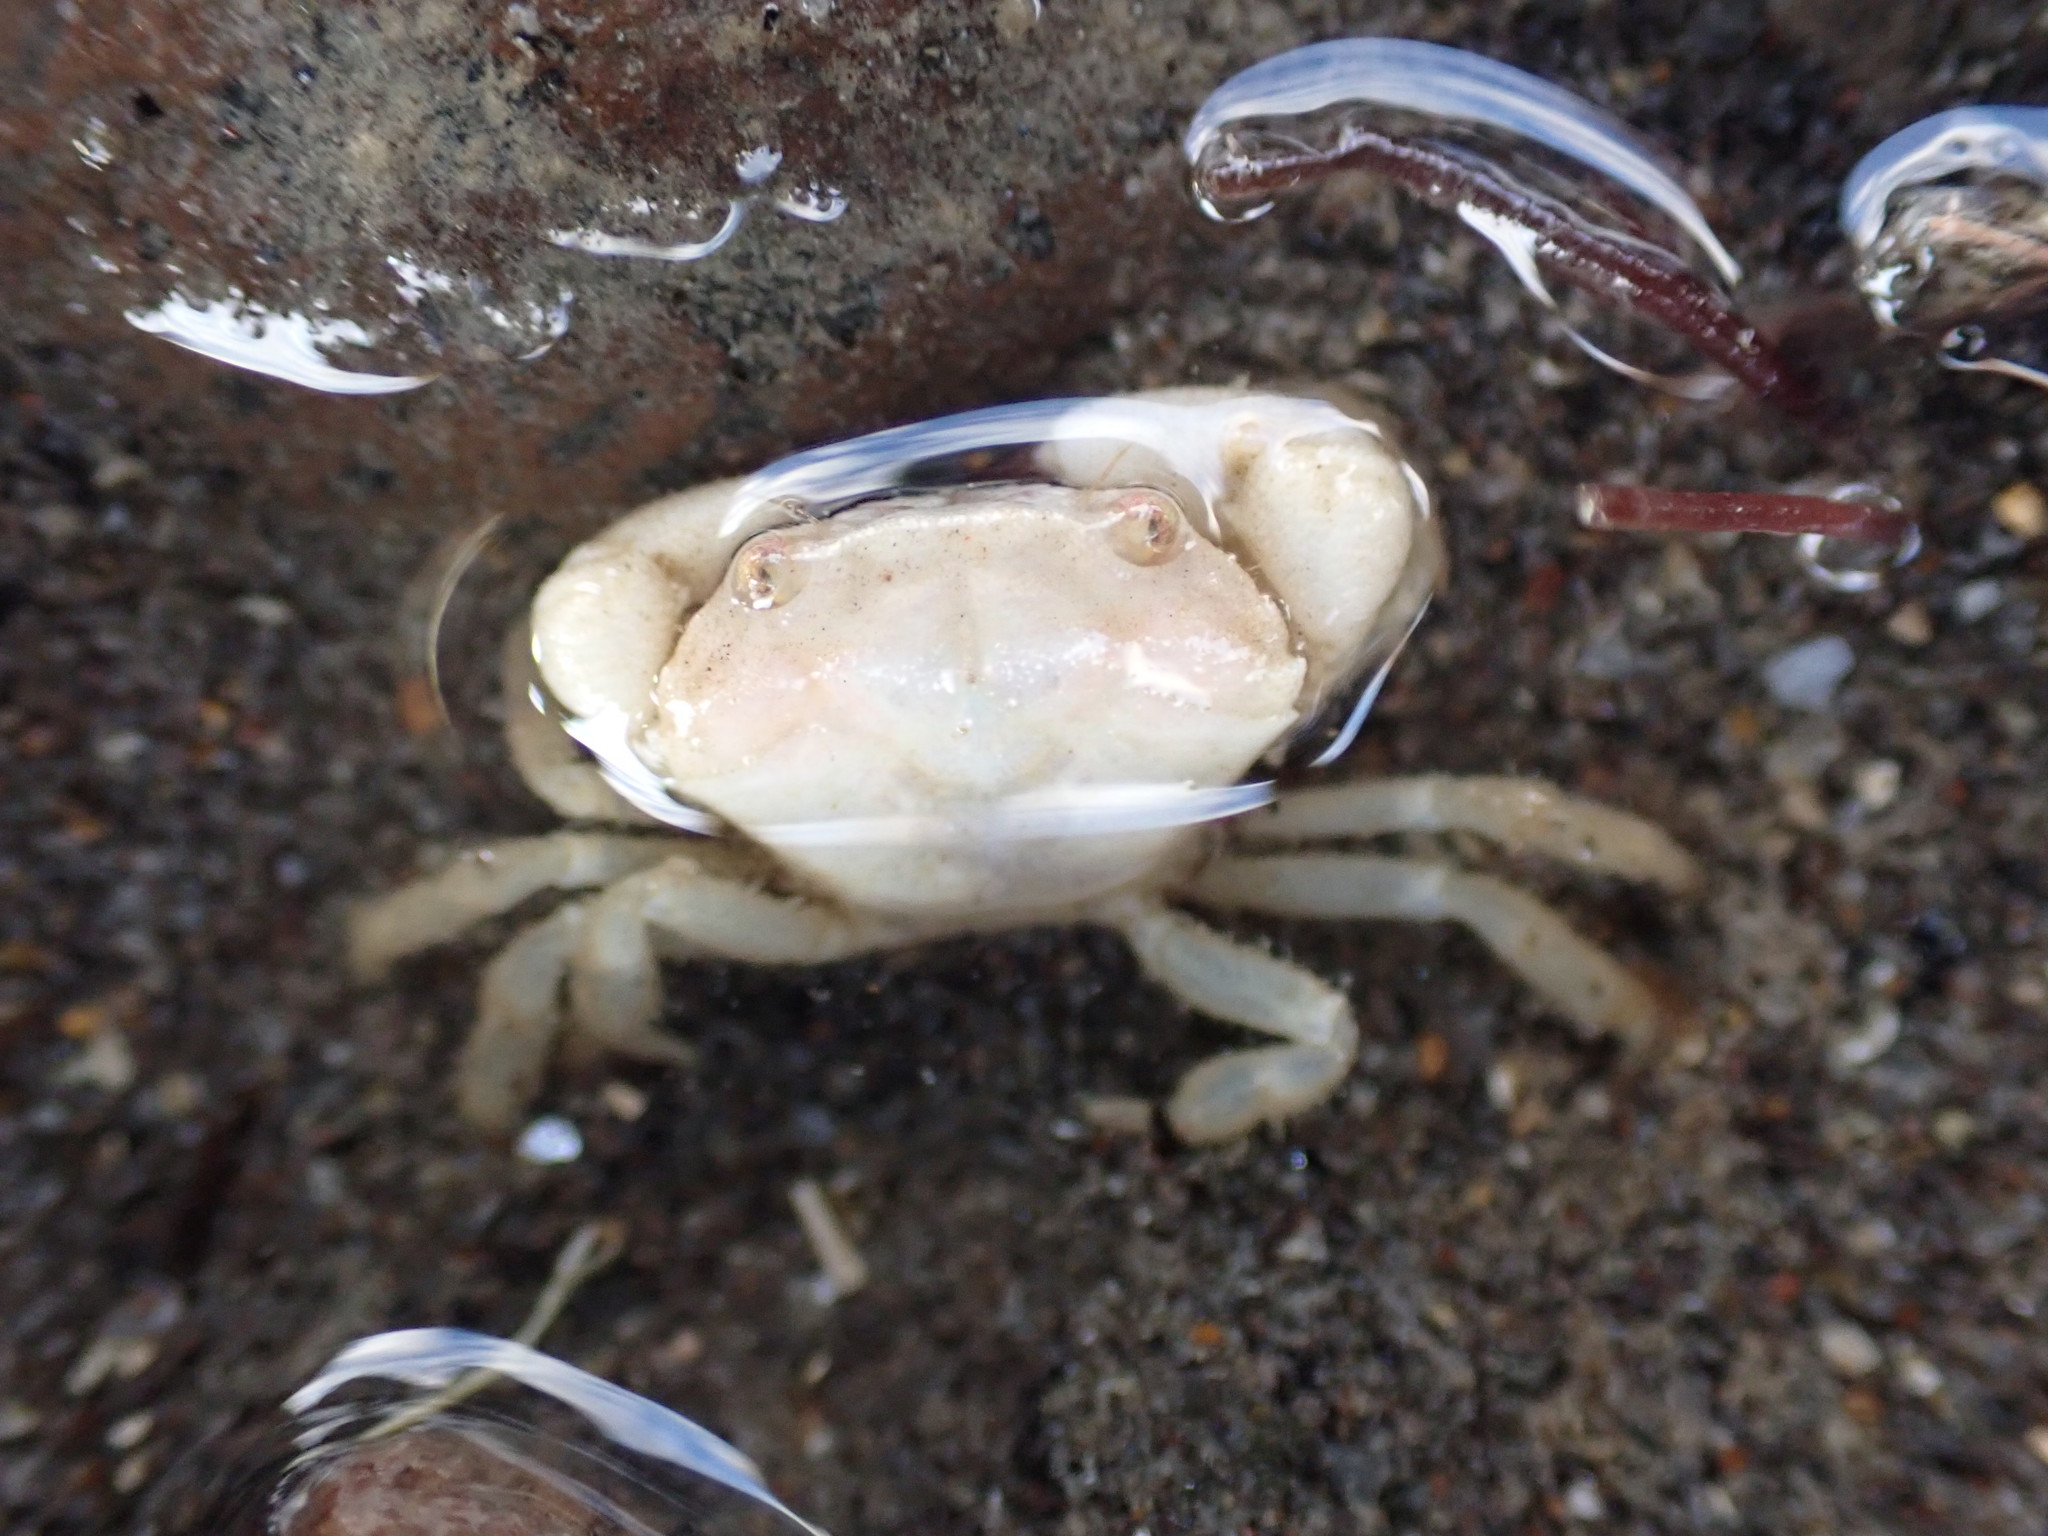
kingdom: Animalia
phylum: Arthropoda
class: Malacostraca
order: Decapoda
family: Oziidae
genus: Ozius
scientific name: Ozius deplanatus
